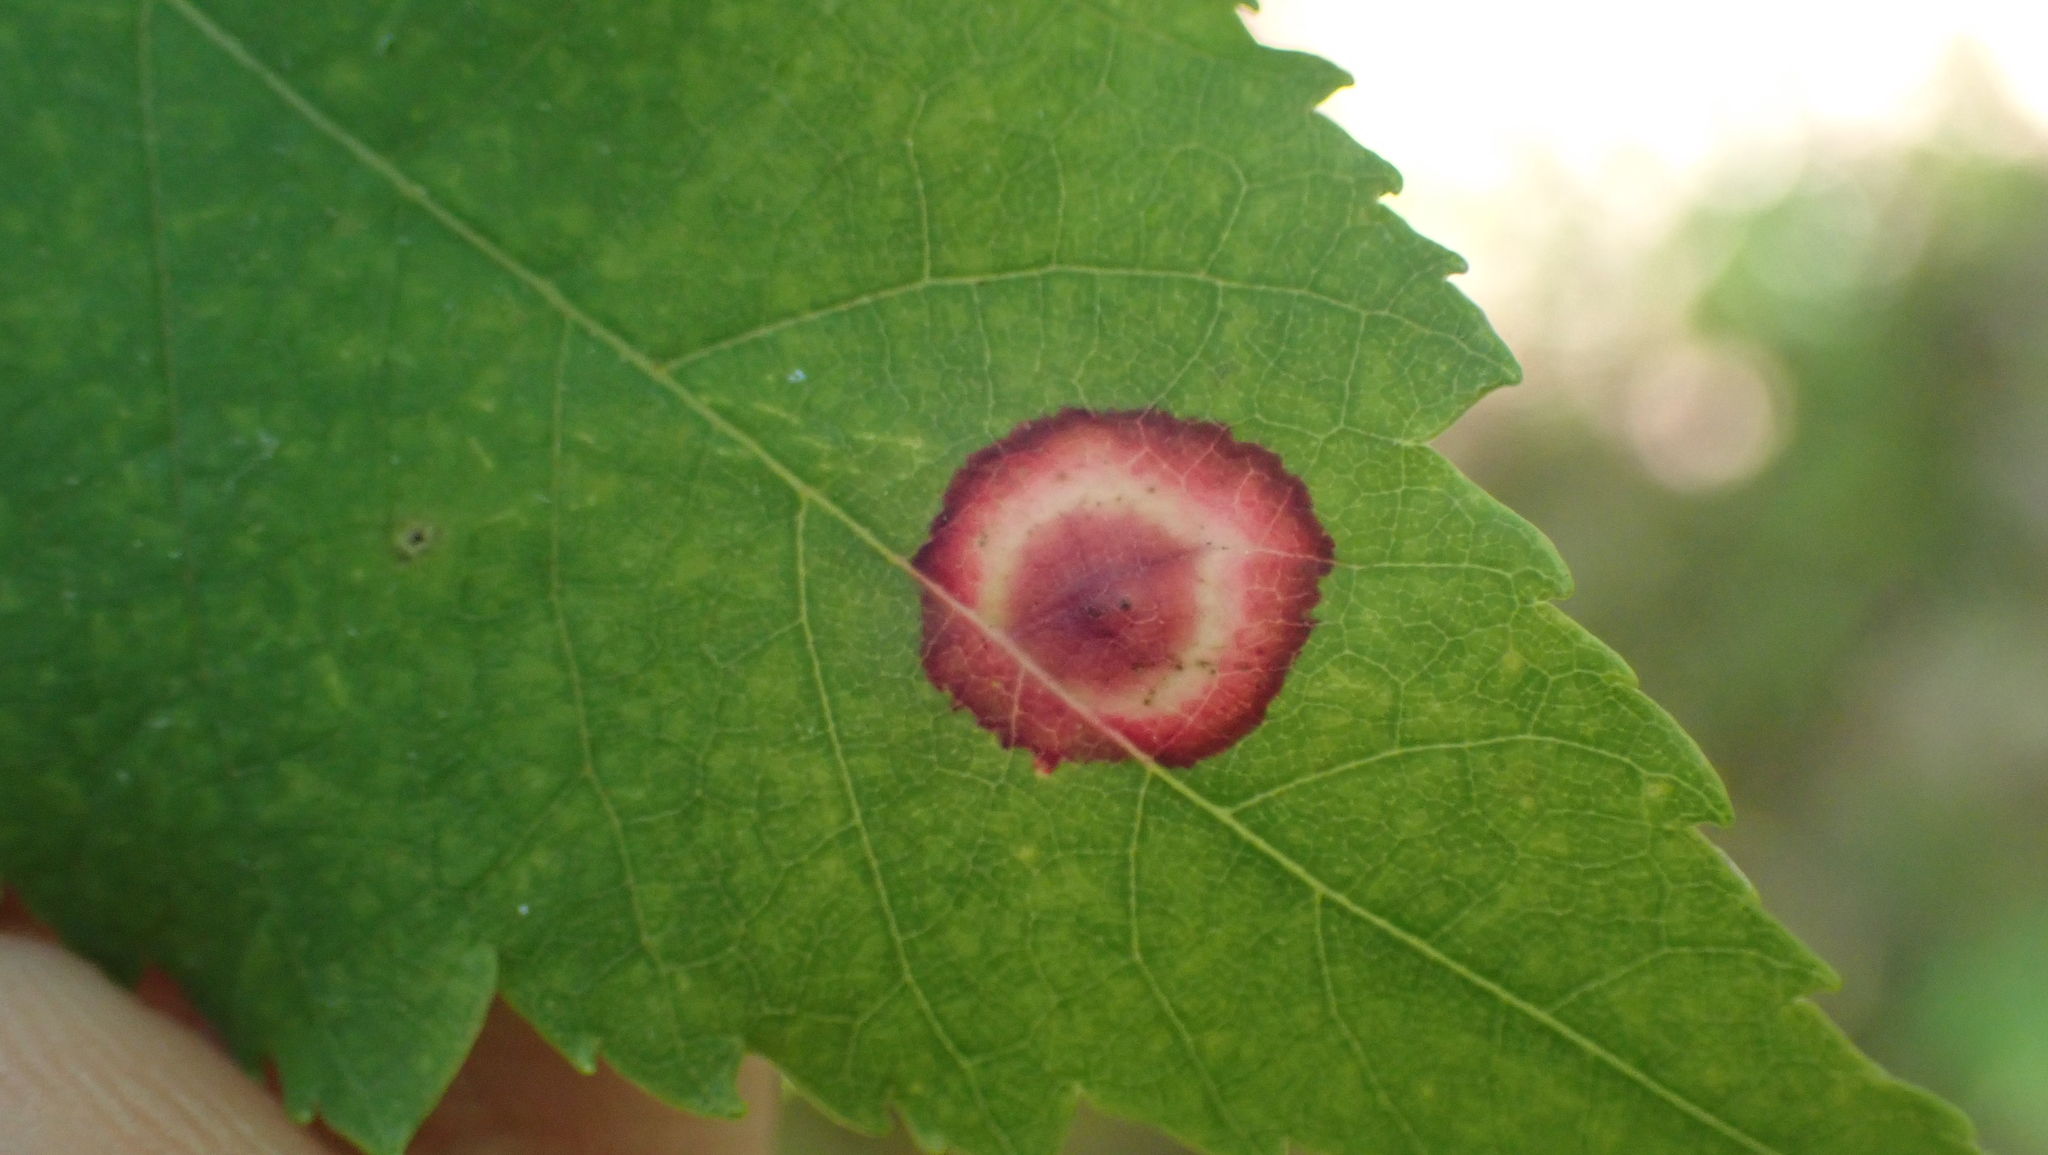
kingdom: Animalia
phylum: Arthropoda
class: Insecta
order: Diptera
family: Cecidomyiidae
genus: Acericecis
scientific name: Acericecis ocellaris
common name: Ocellate gall midge
